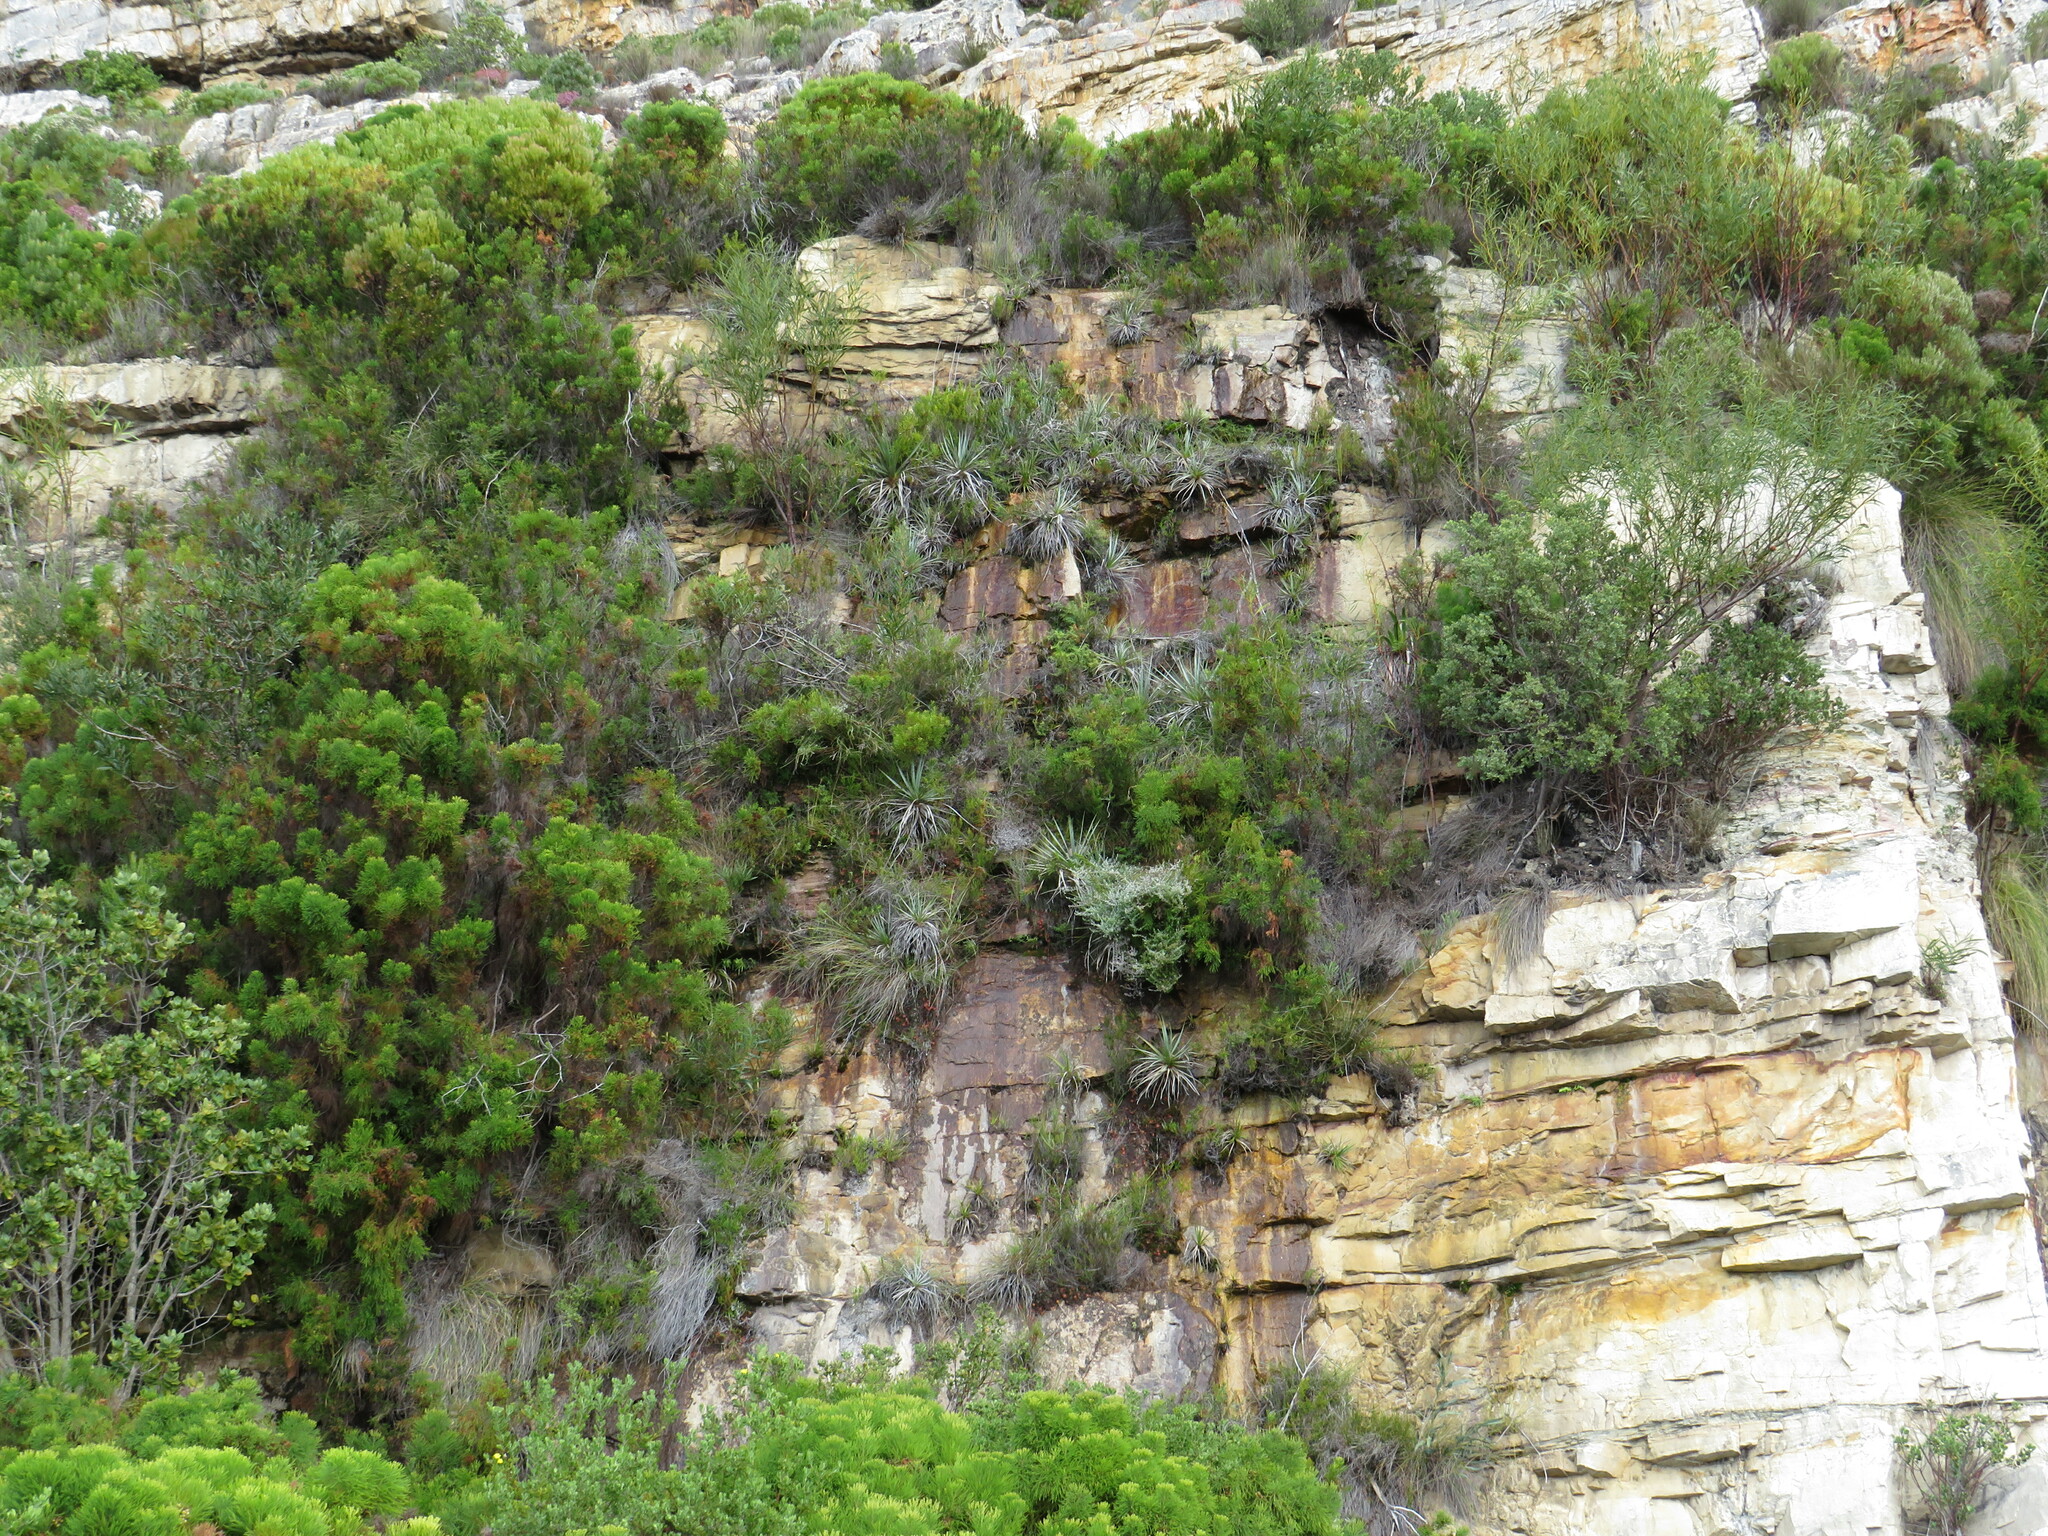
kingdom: Plantae
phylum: Tracheophyta
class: Liliopsida
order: Poales
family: Thurniaceae
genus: Prionium
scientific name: Prionium serratum
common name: Palmiet
